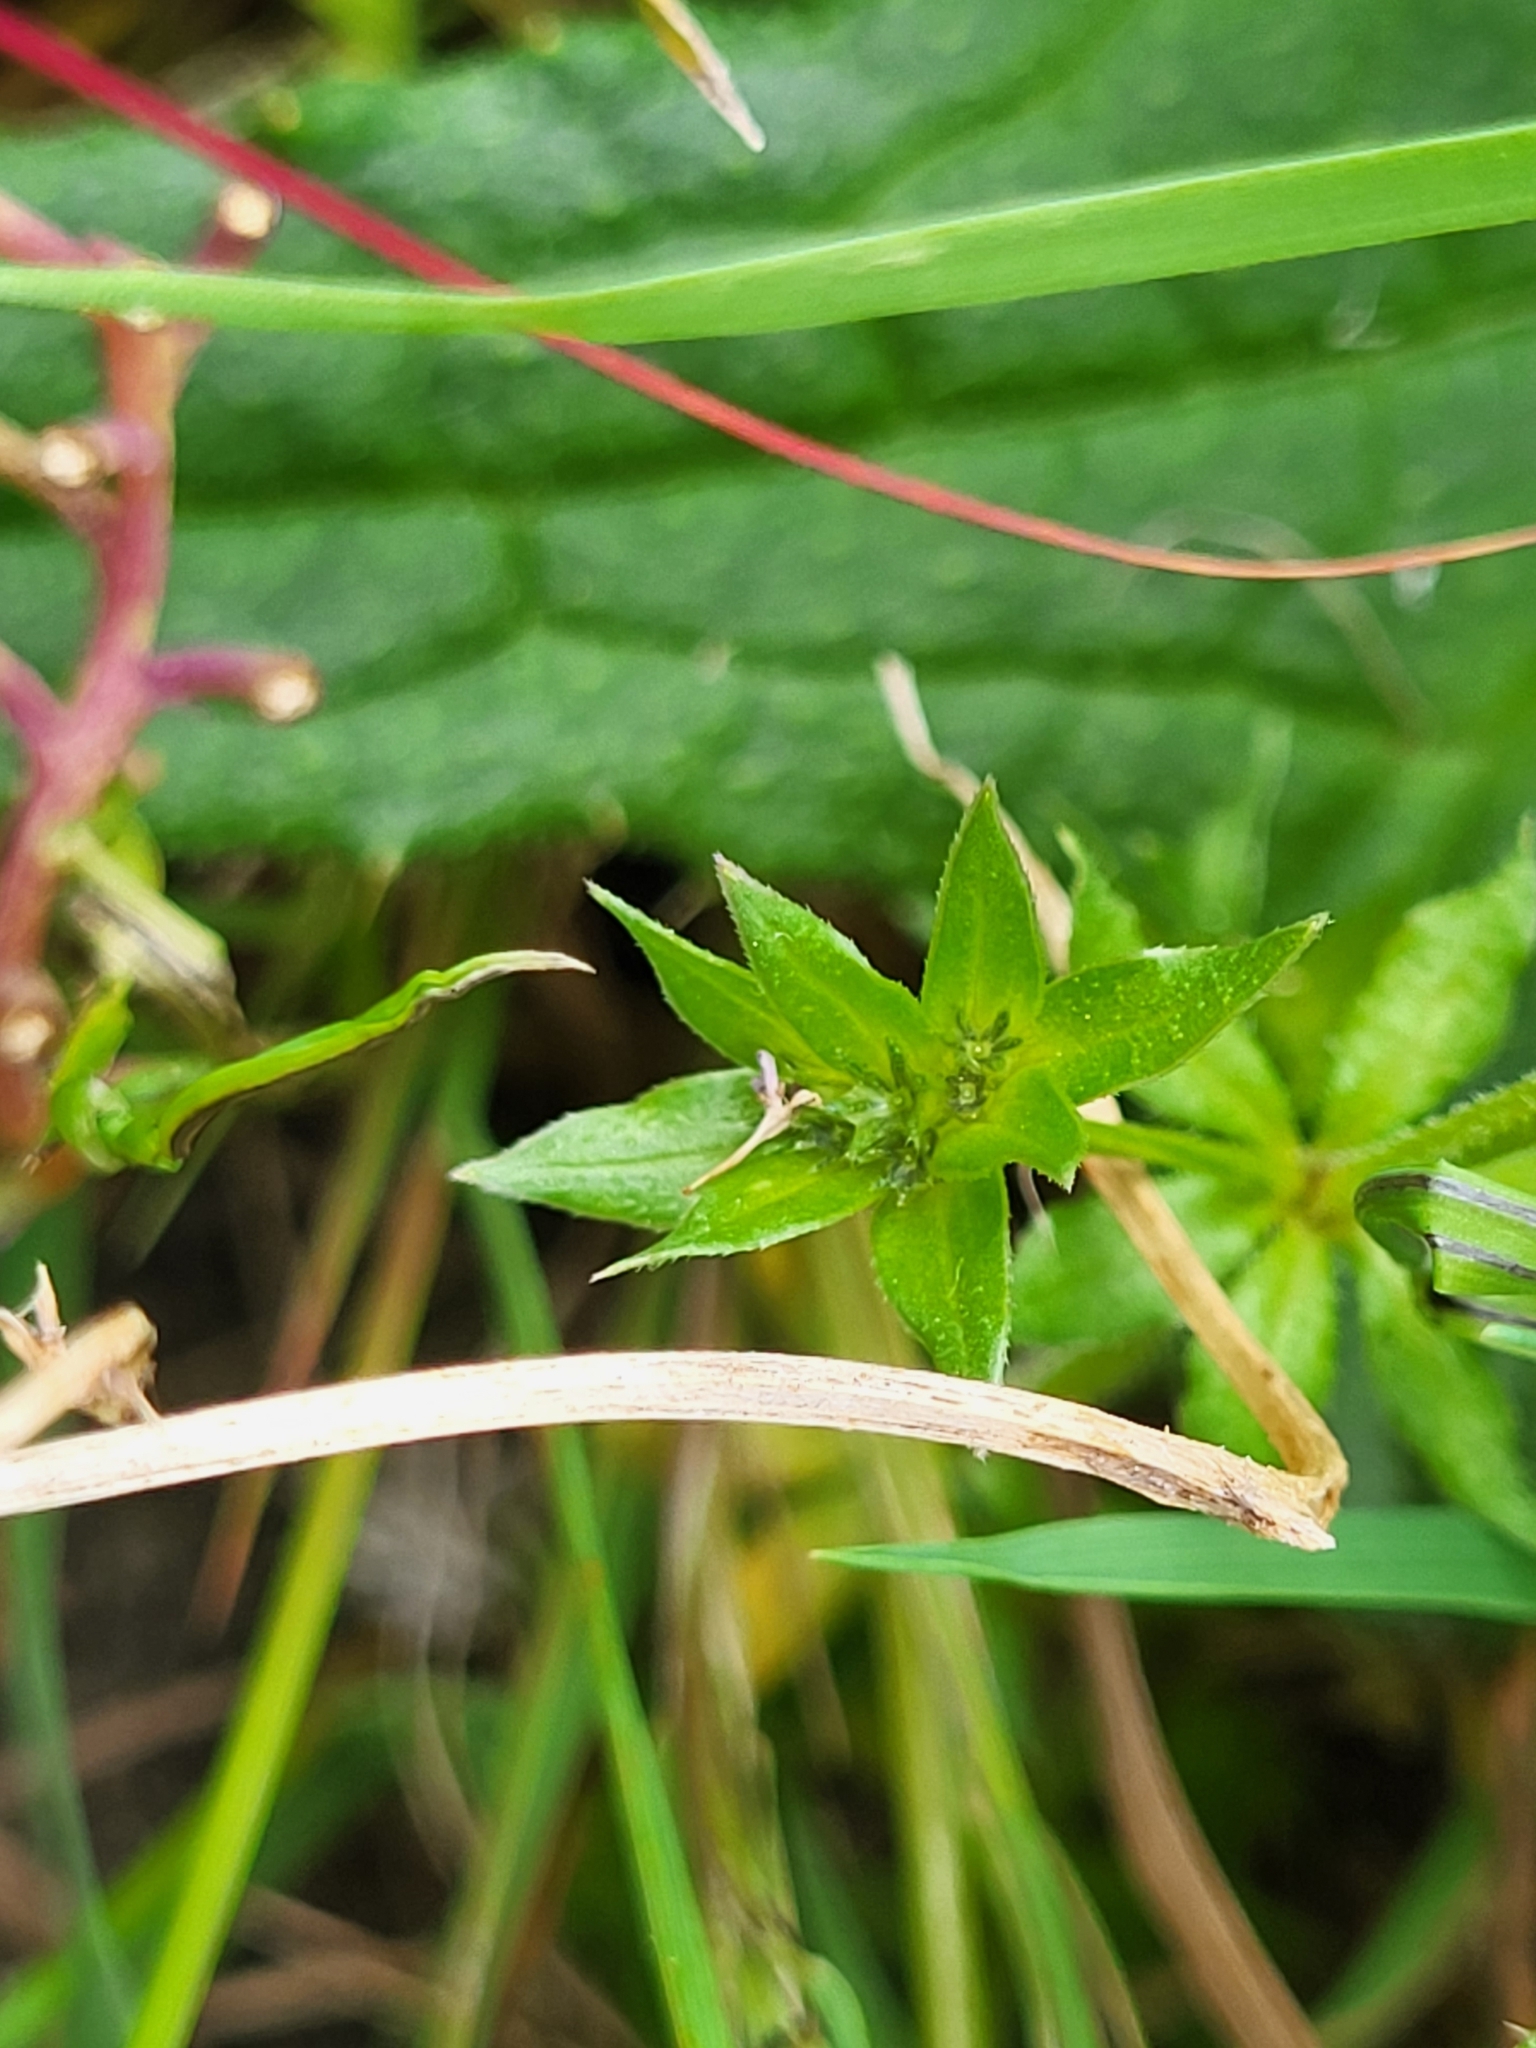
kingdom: Plantae
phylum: Tracheophyta
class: Magnoliopsida
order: Gentianales
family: Rubiaceae
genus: Sherardia
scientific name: Sherardia arvensis
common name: Field madder
